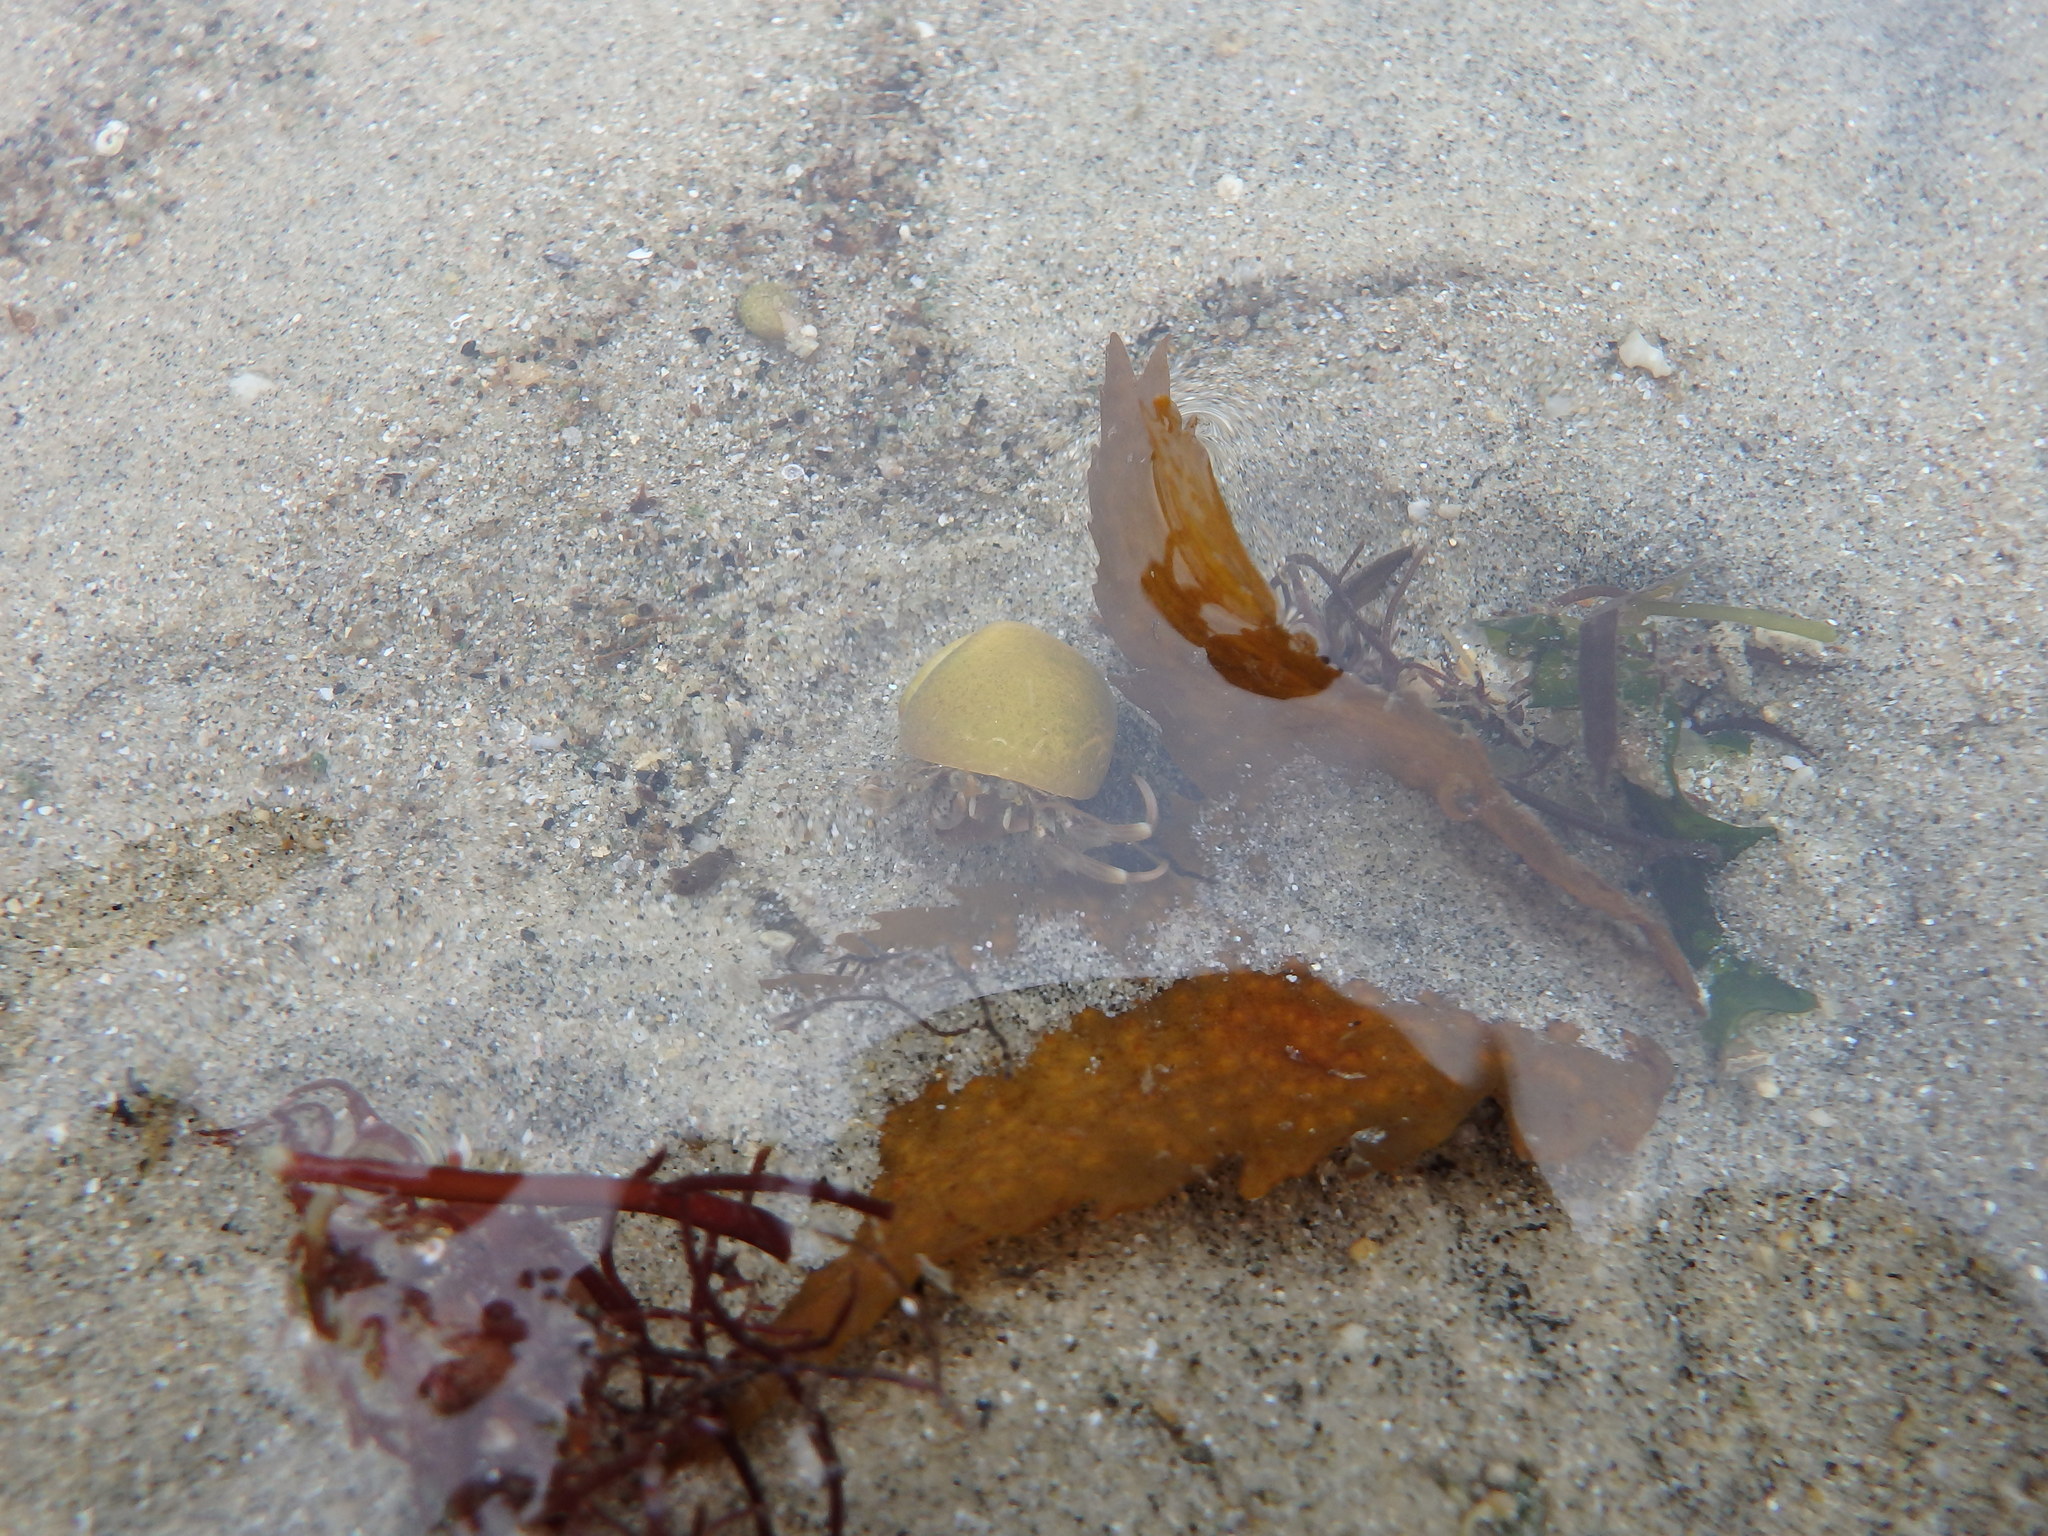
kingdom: Animalia
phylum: Arthropoda
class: Malacostraca
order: Decapoda
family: Paguridae
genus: Pagurus
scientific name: Pagurus bernhardus
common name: Hermit crab
